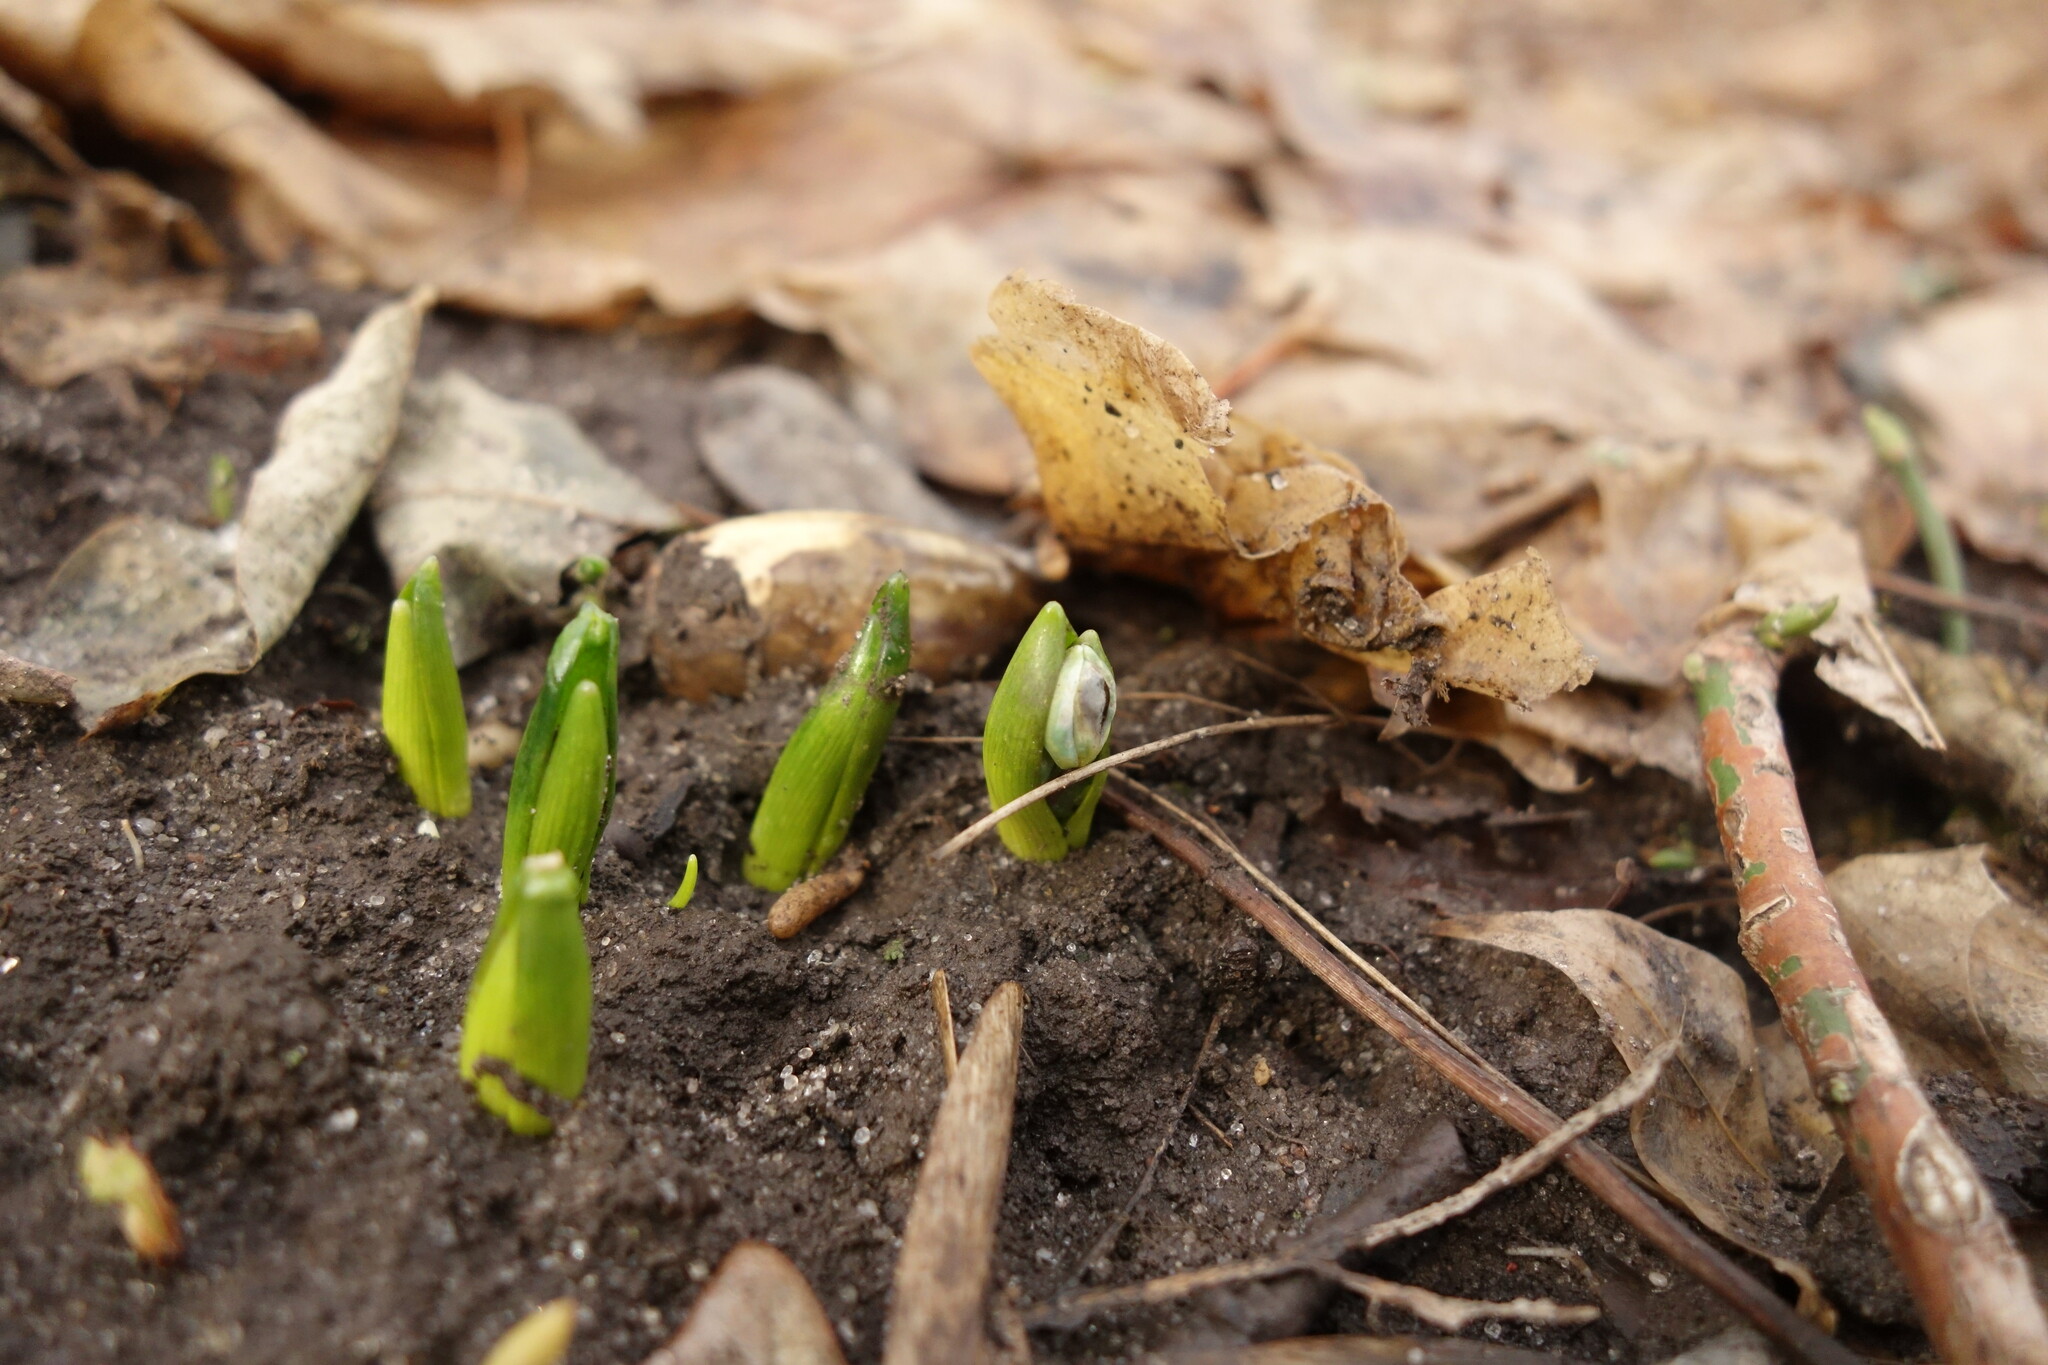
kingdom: Plantae
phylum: Tracheophyta
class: Liliopsida
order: Asparagales
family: Asparagaceae
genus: Scilla
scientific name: Scilla siberica
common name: Siberian squill
